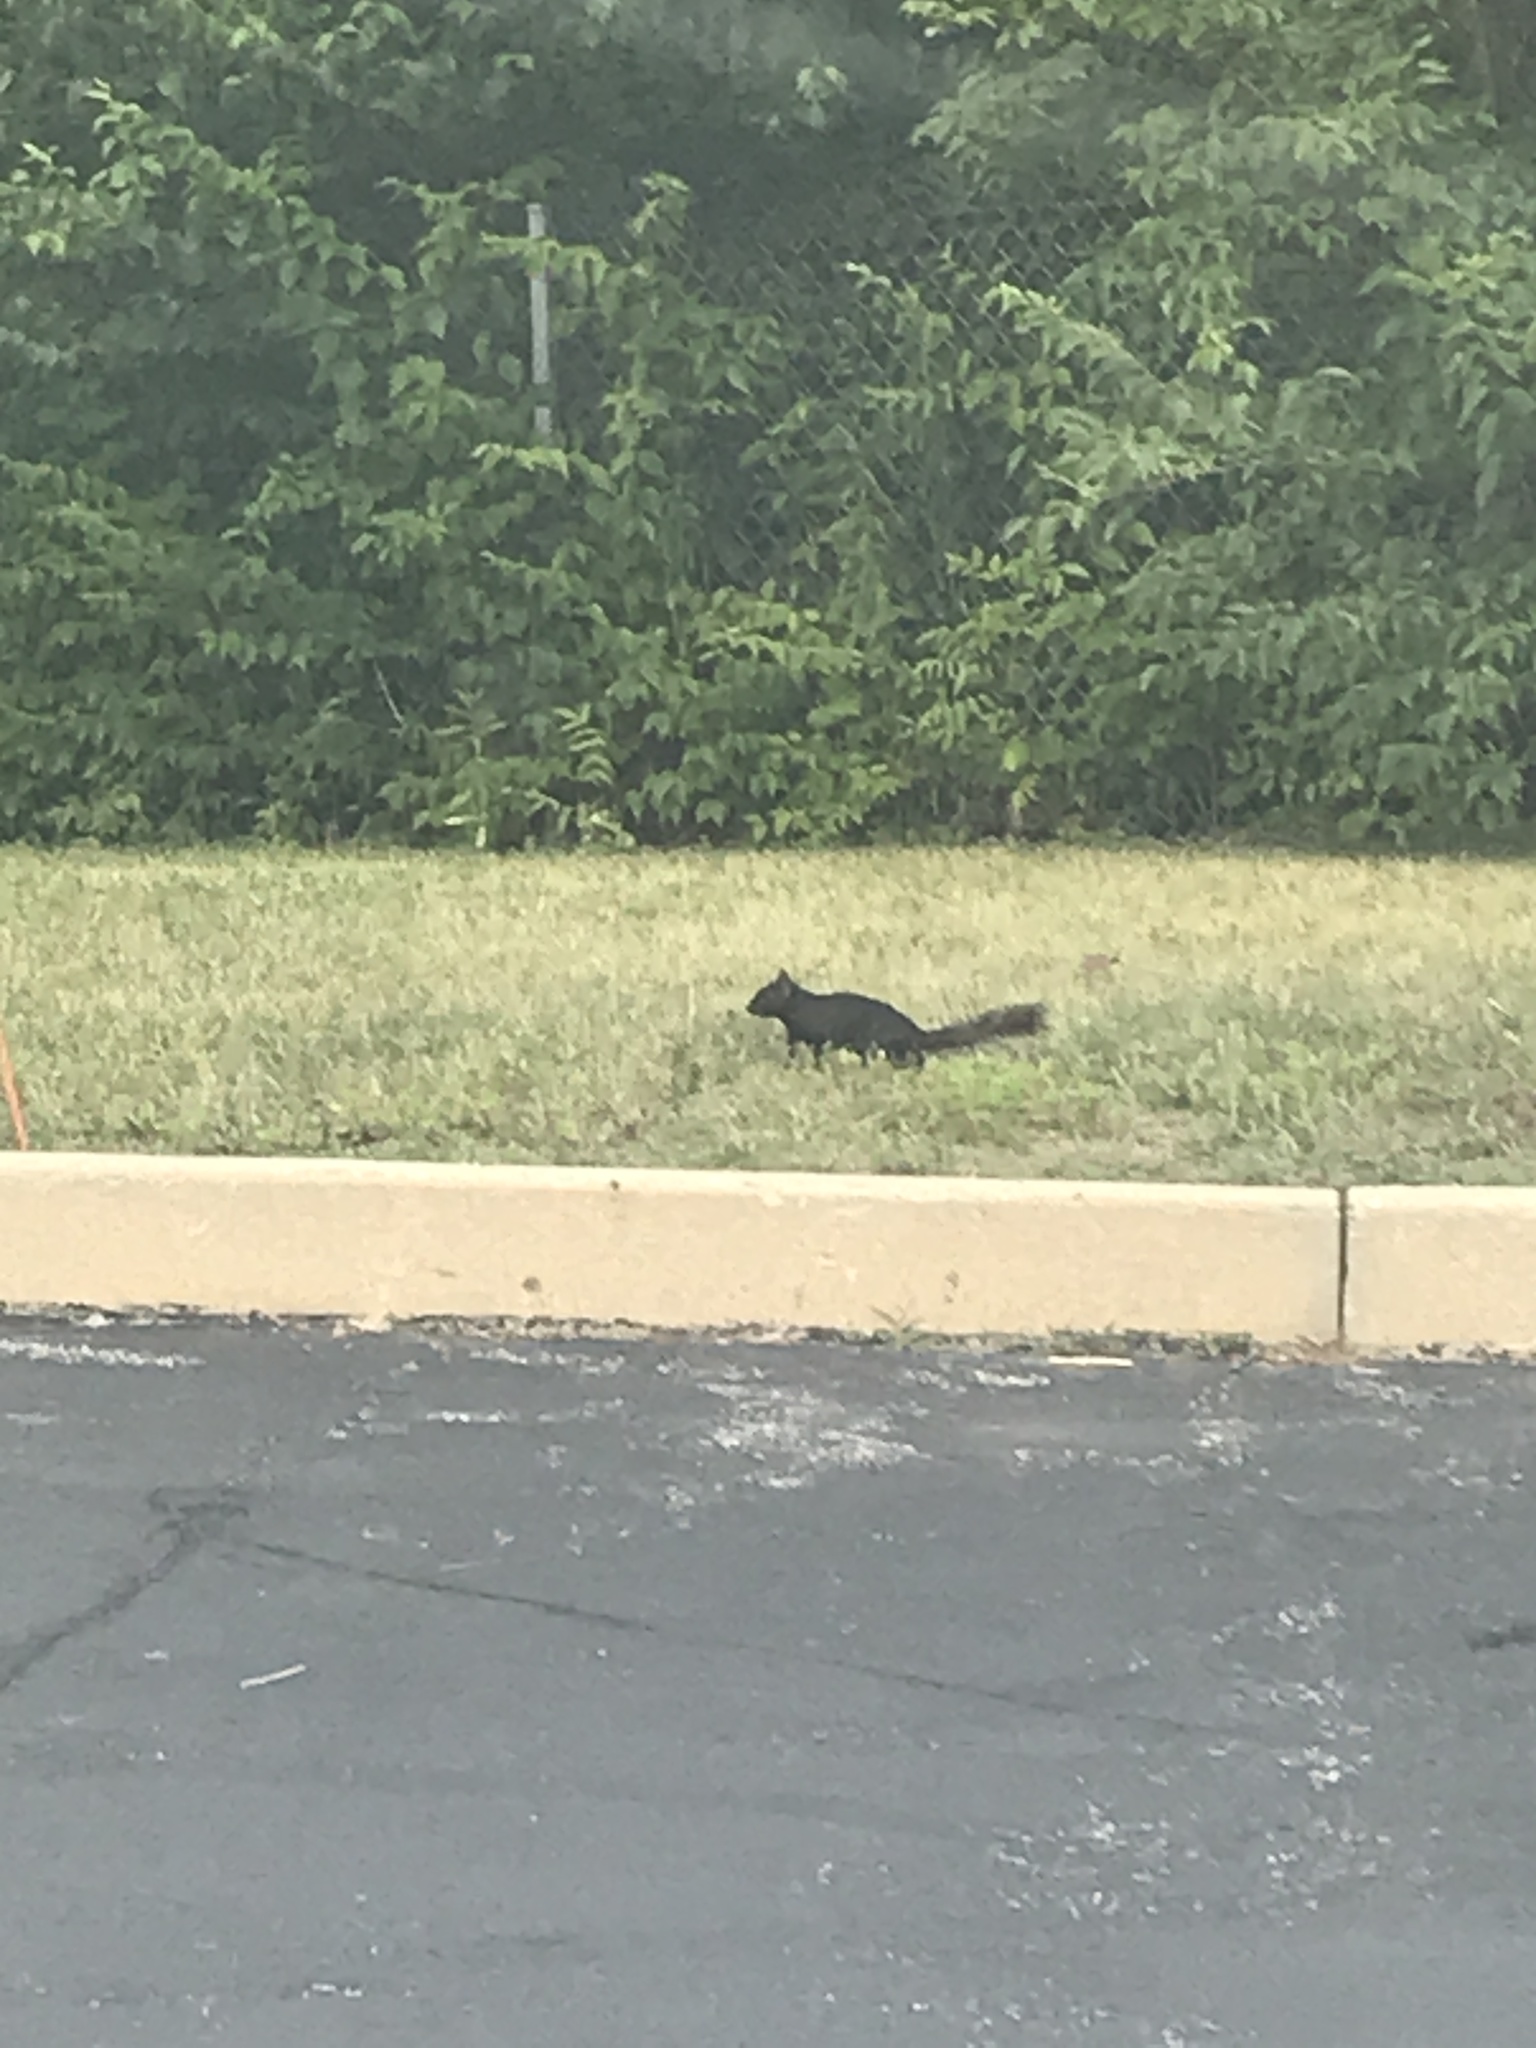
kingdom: Animalia
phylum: Chordata
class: Mammalia
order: Rodentia
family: Sciuridae
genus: Sciurus
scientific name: Sciurus carolinensis
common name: Eastern gray squirrel
